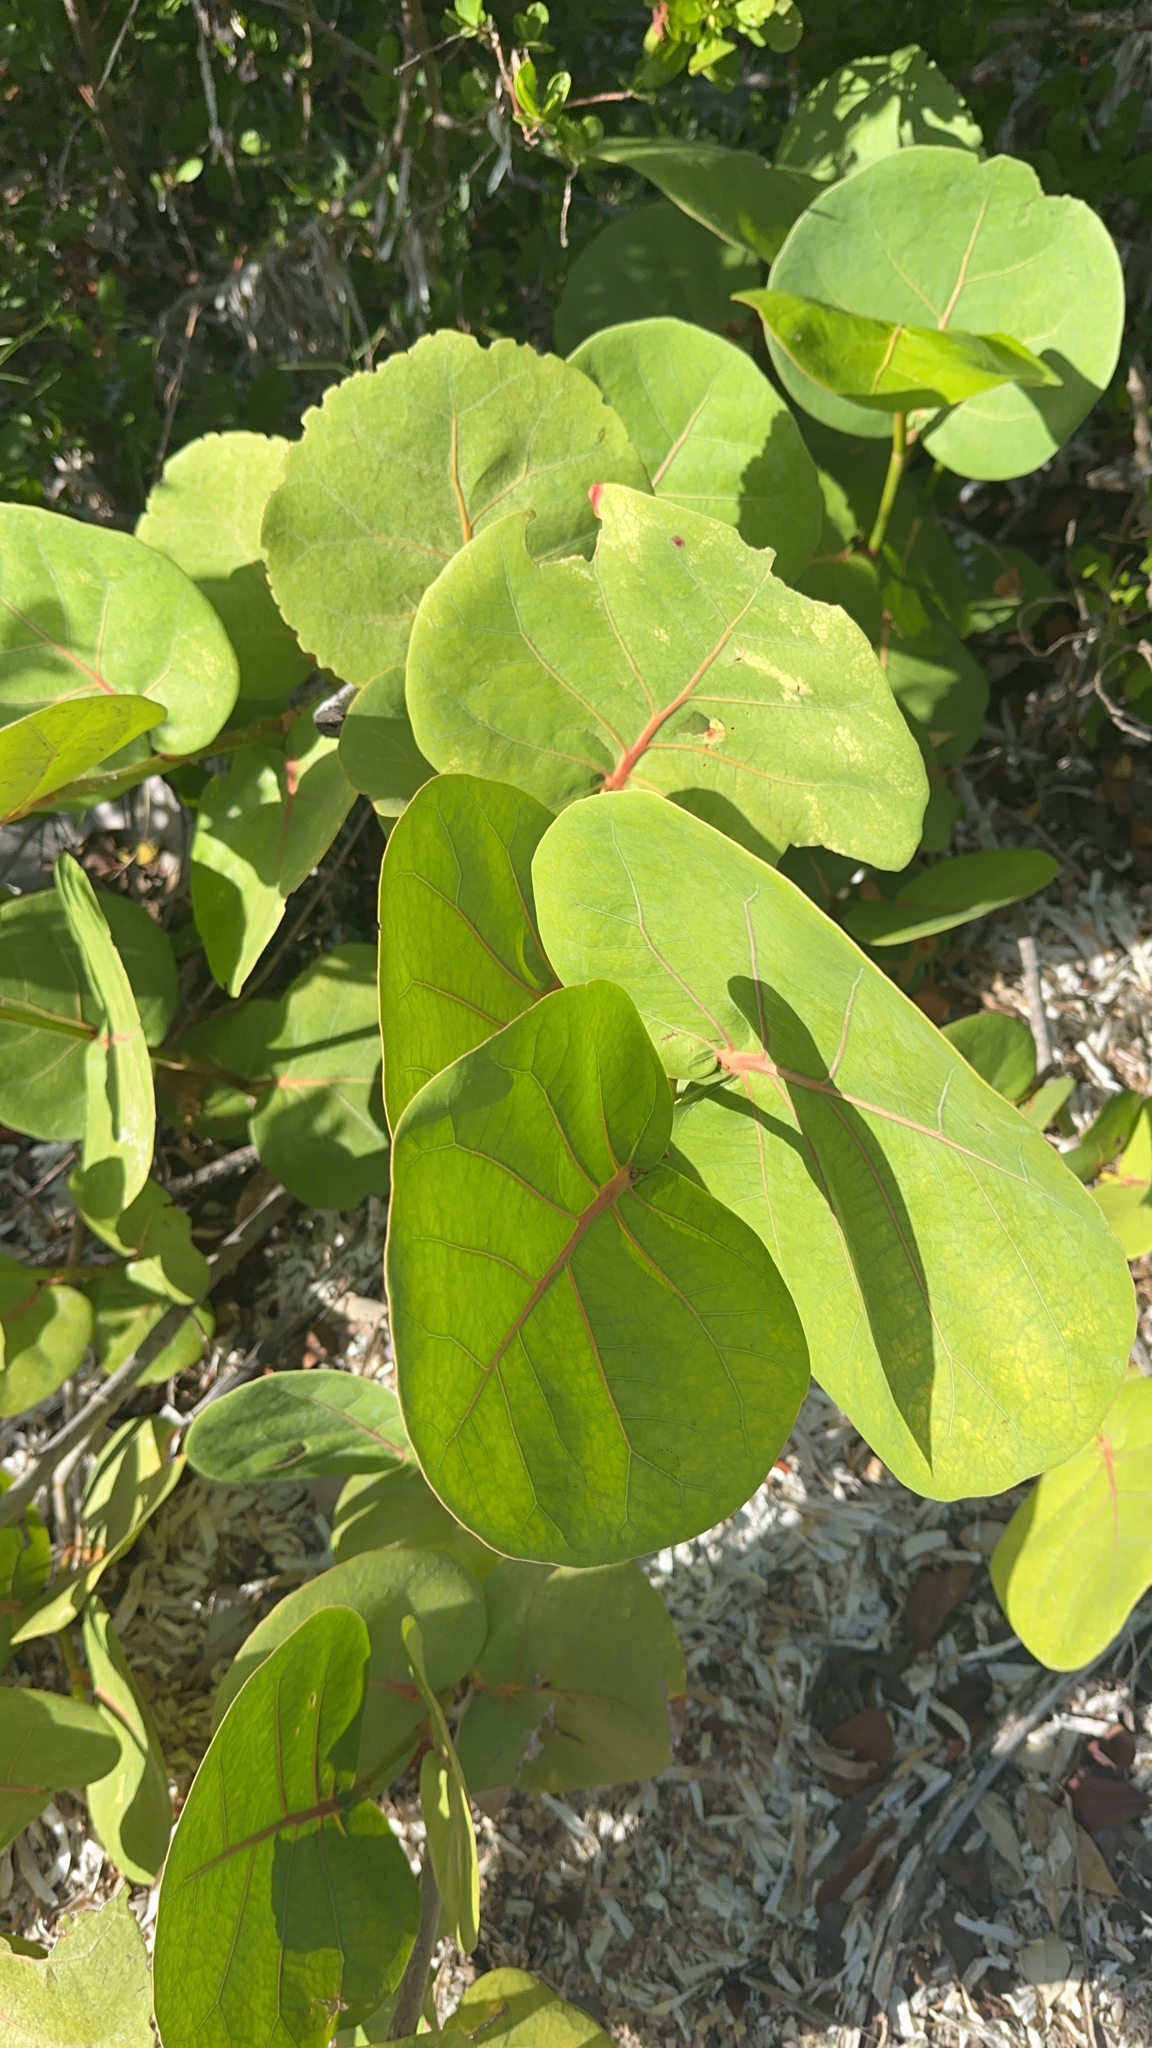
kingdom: Plantae
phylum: Tracheophyta
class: Magnoliopsida
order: Caryophyllales
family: Polygonaceae
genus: Coccoloba
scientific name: Coccoloba uvifera
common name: Seagrape
